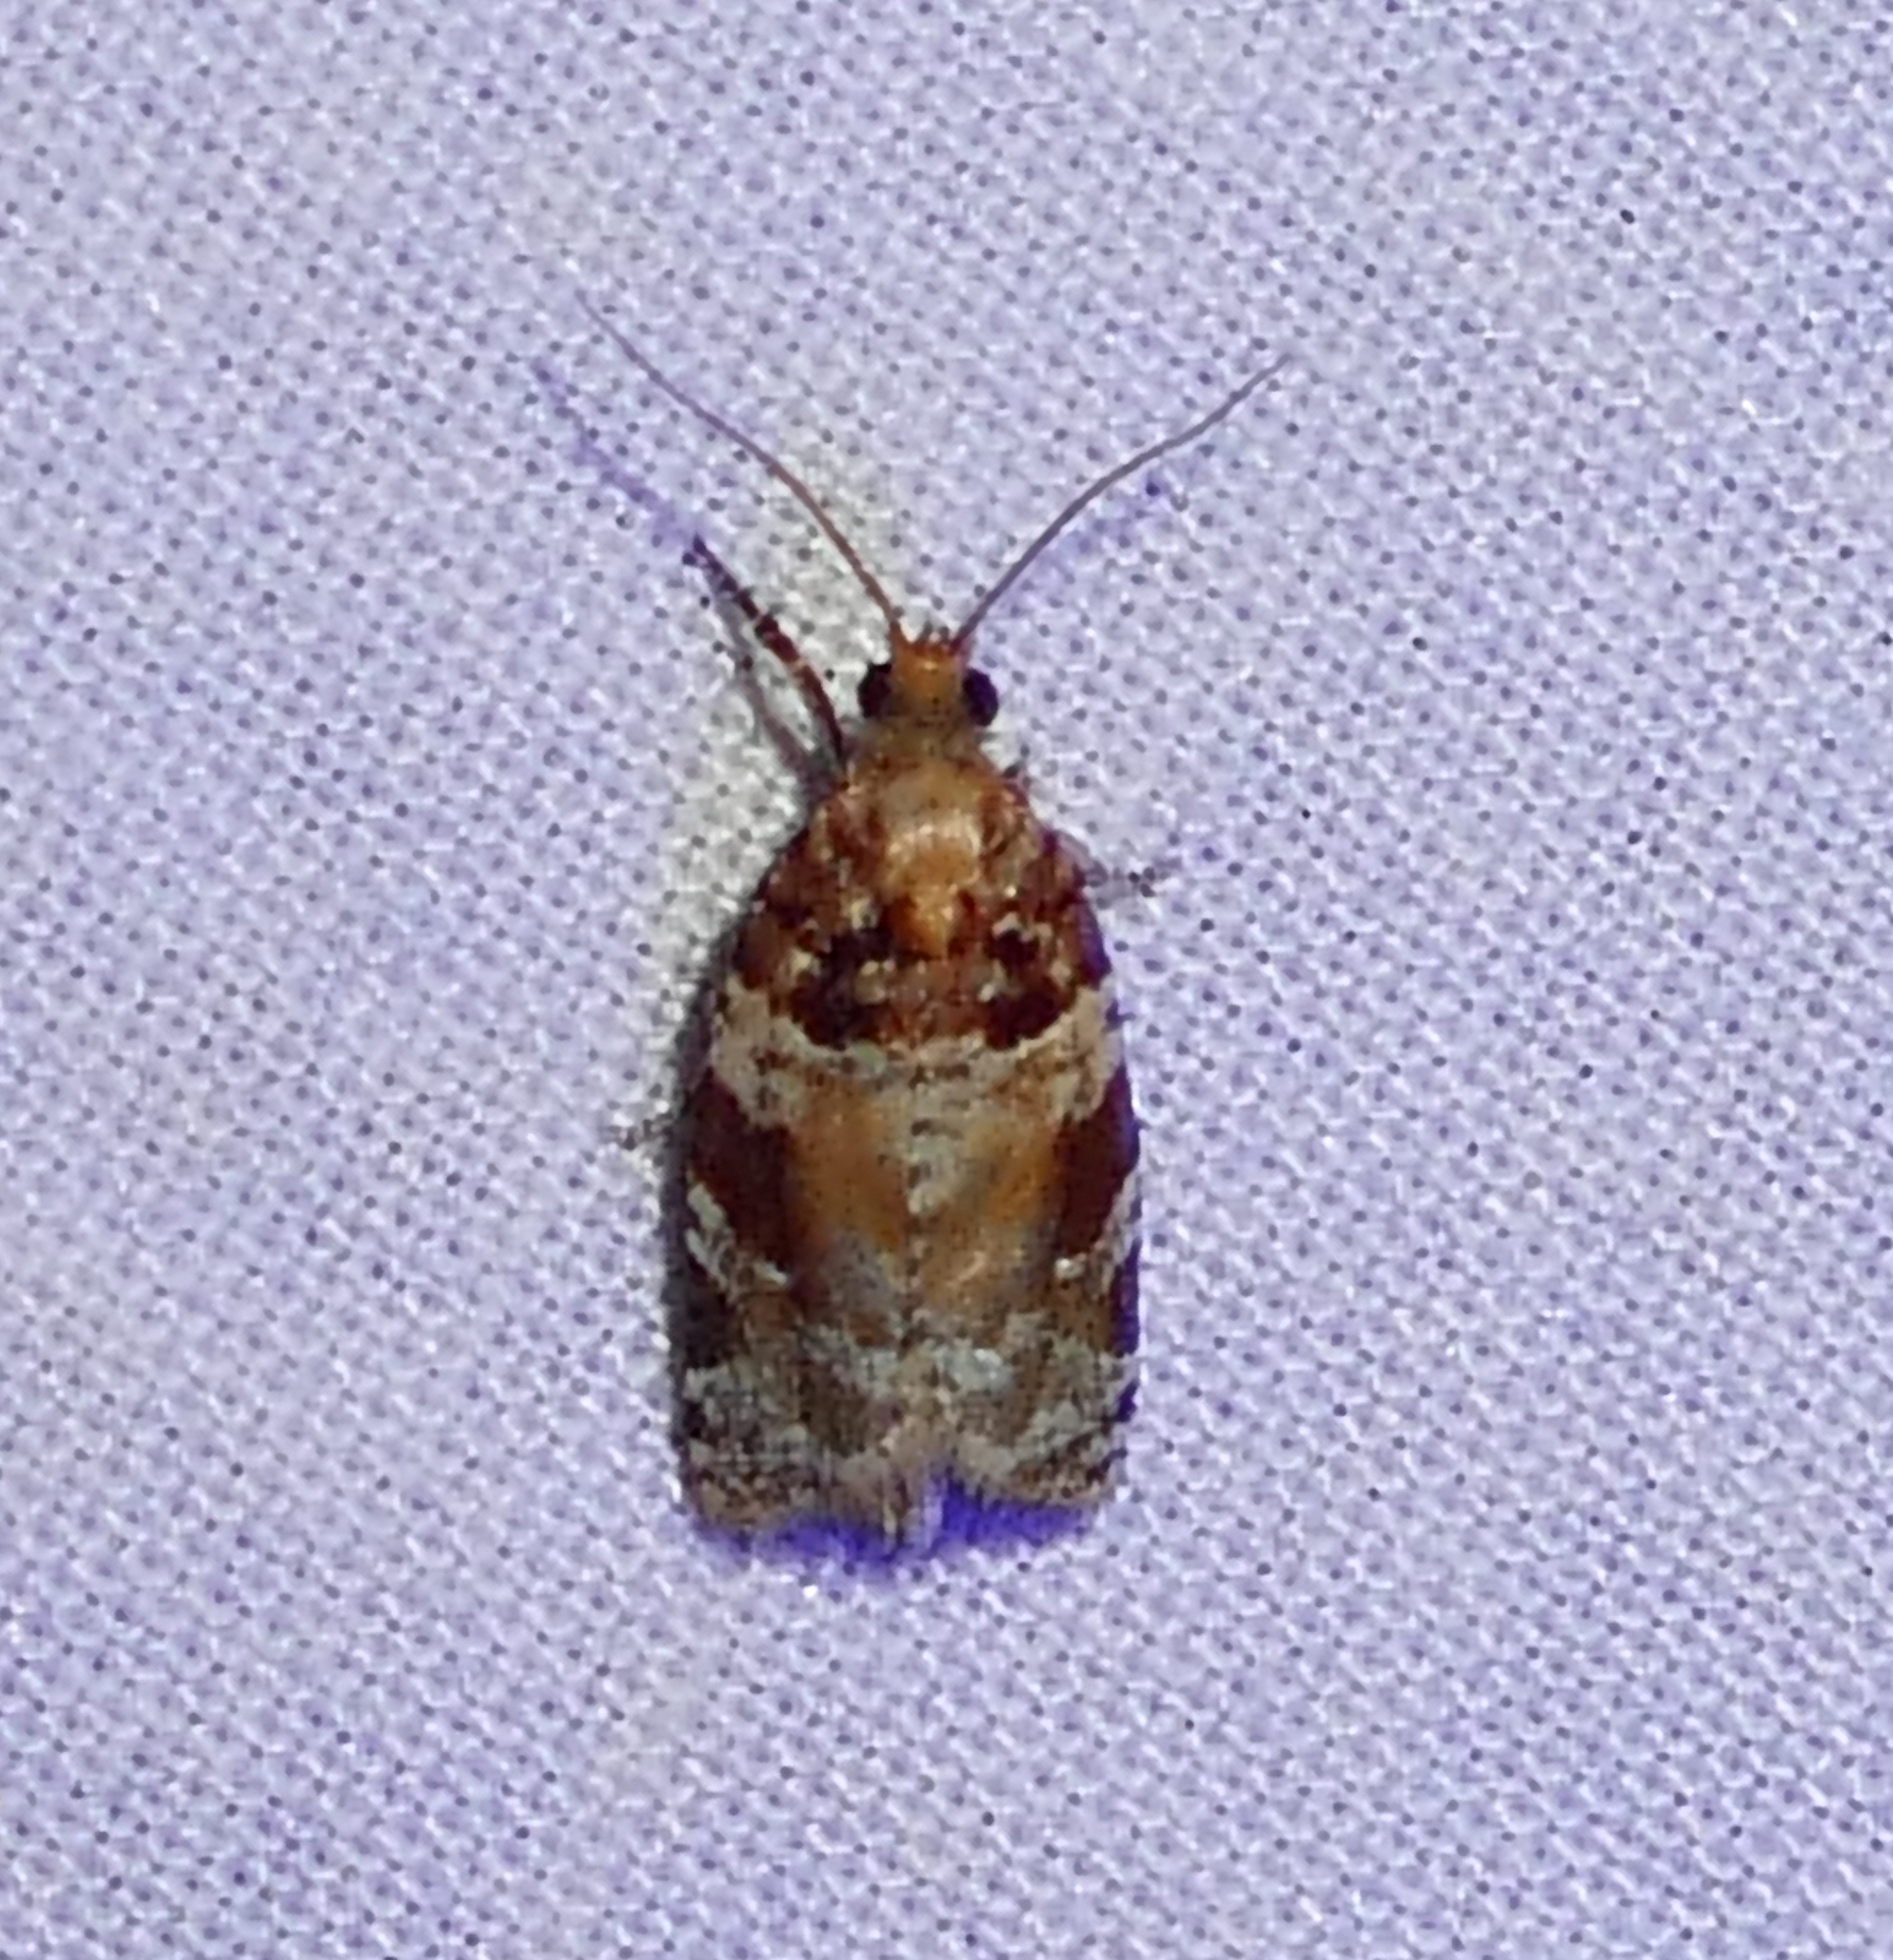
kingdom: Animalia
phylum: Arthropoda
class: Insecta
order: Lepidoptera
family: Tortricidae
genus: Argyrotaenia
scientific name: Argyrotaenia kimballi
